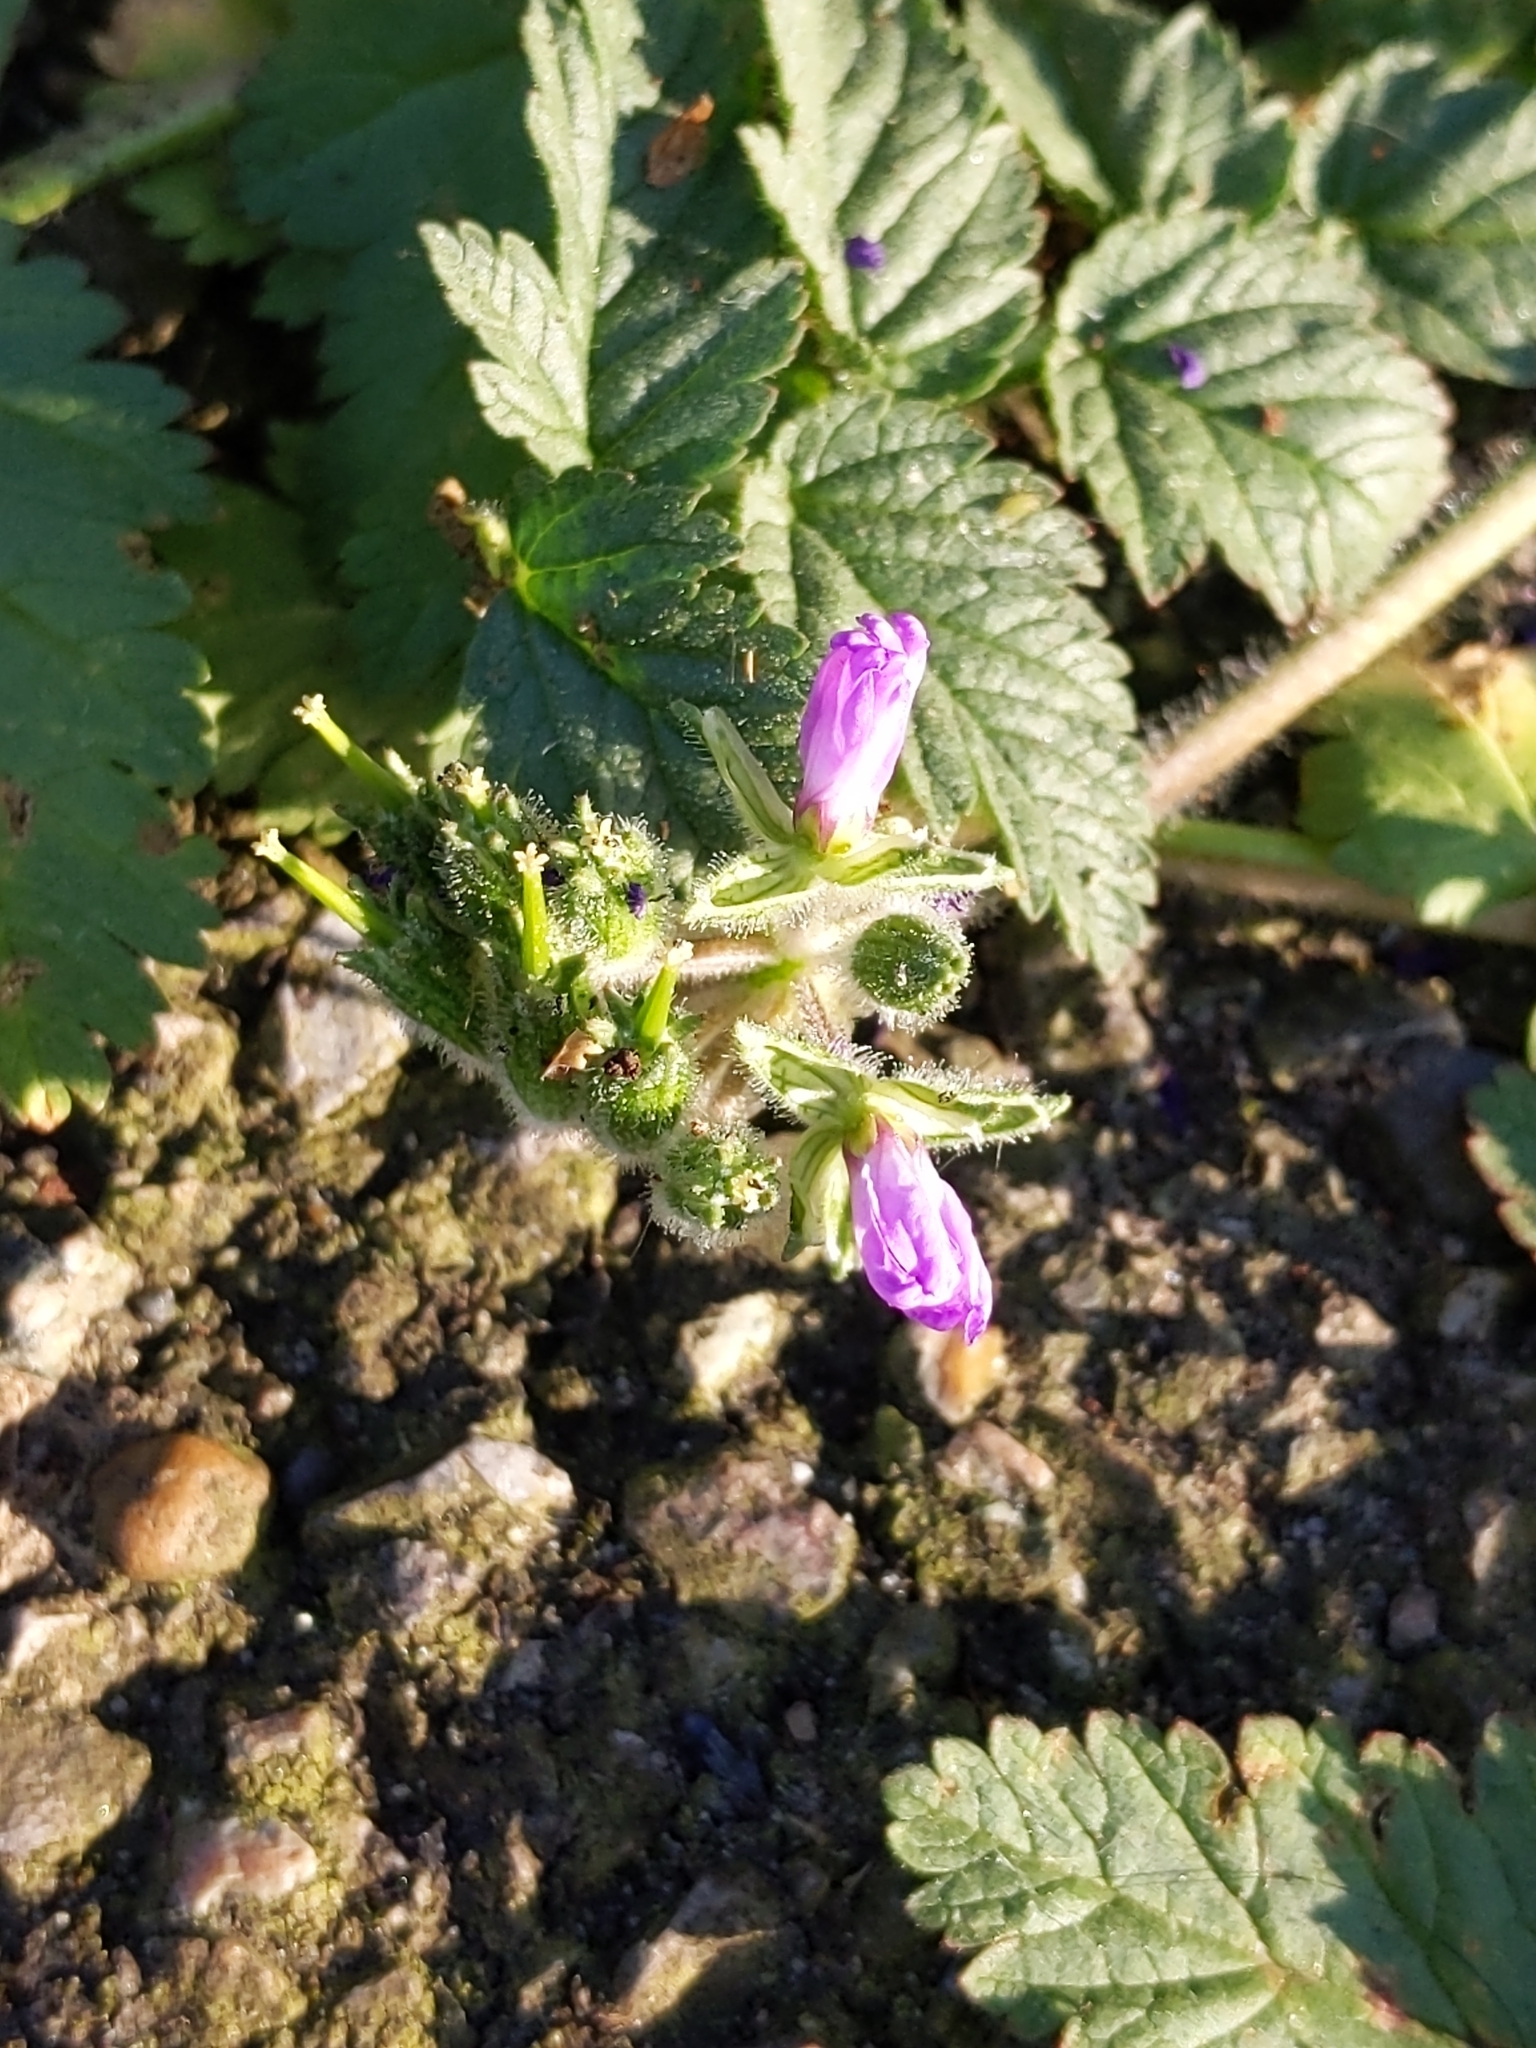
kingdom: Plantae
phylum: Tracheophyta
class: Magnoliopsida
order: Geraniales
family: Geraniaceae
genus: Erodium
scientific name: Erodium moschatum
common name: Musk stork's-bill
